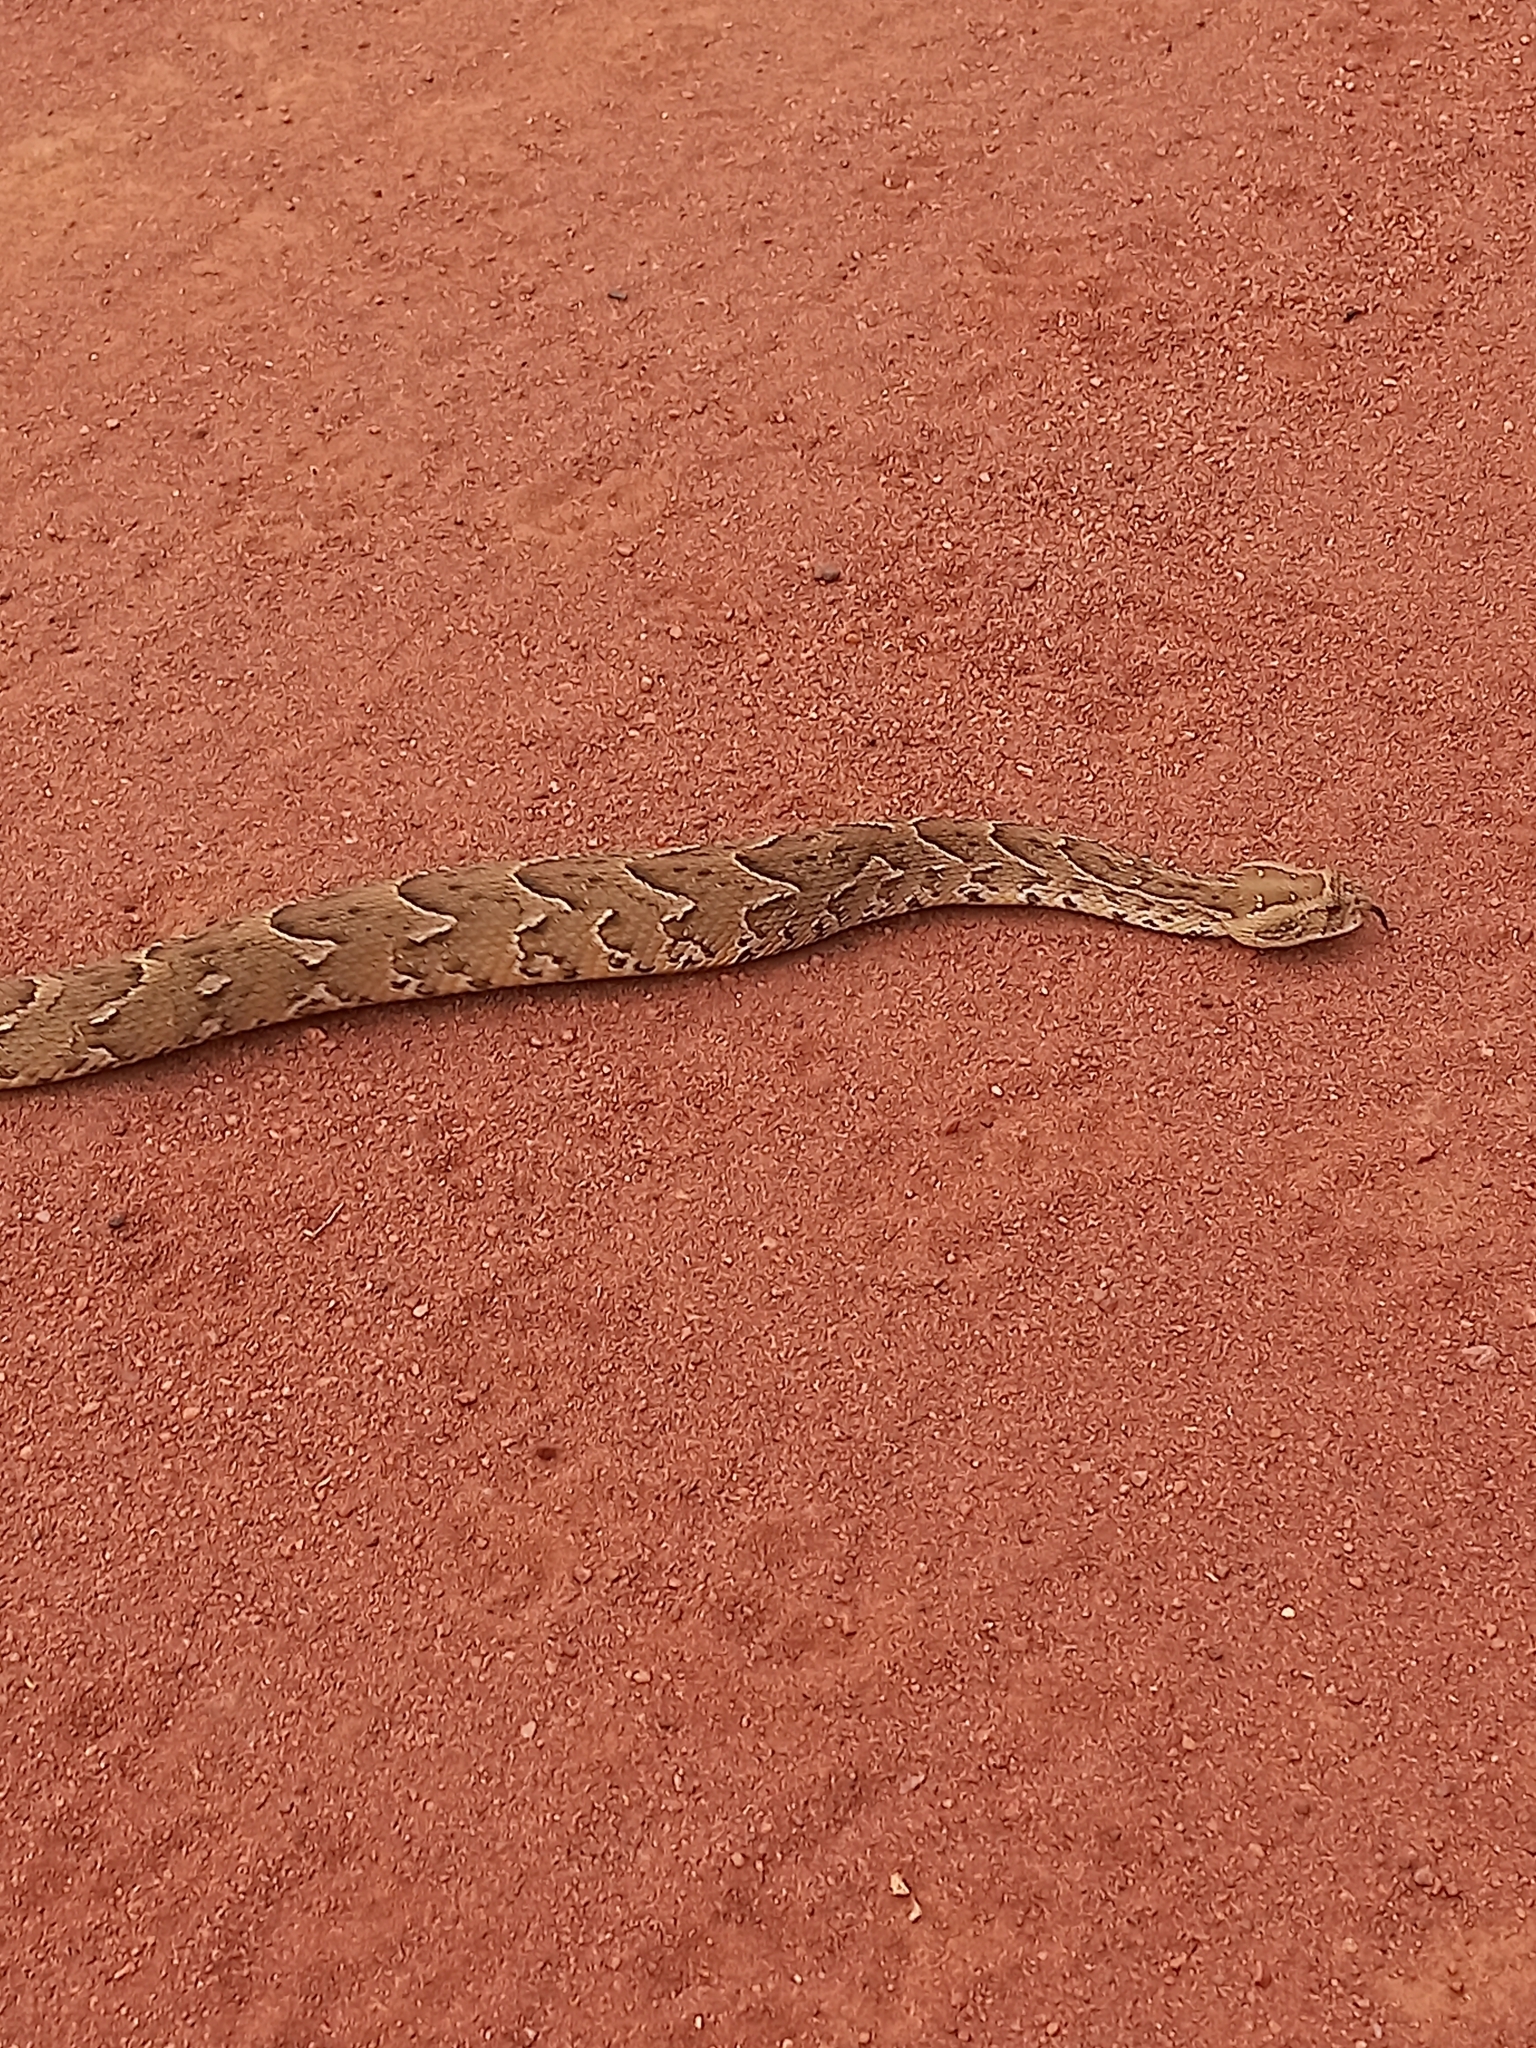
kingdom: Animalia
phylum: Chordata
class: Squamata
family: Viperidae
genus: Bitis
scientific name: Bitis arietans
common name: Puff adder
